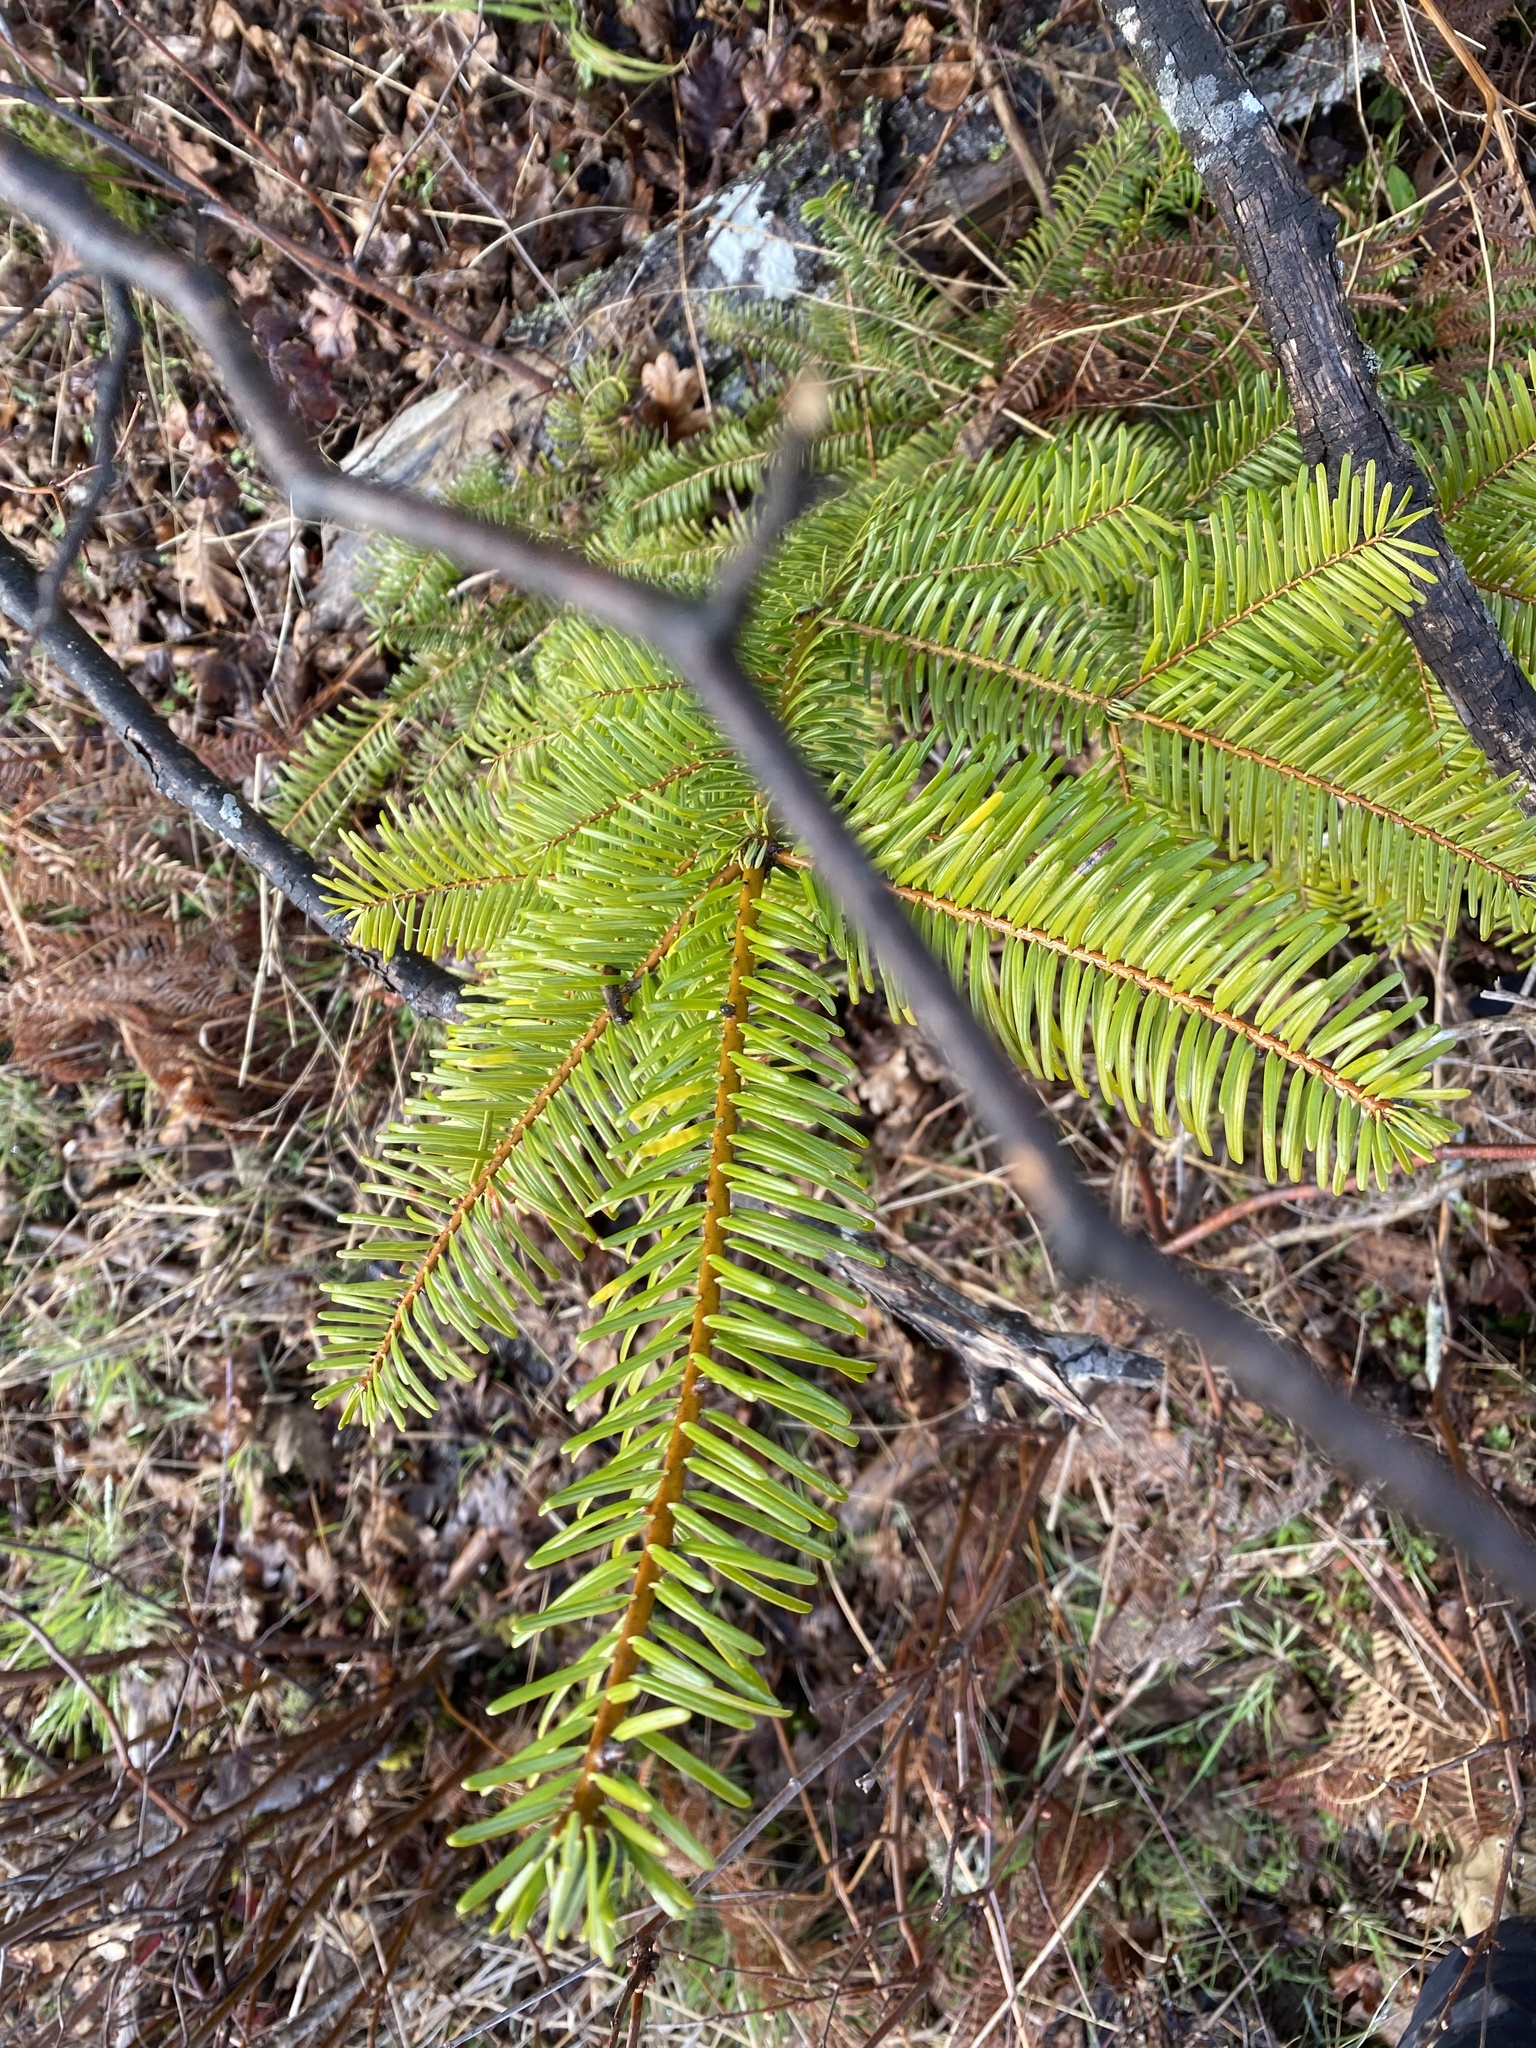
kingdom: Plantae
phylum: Tracheophyta
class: Pinopsida
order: Pinales
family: Pinaceae
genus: Abies
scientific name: Abies grandis
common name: Giant fir
